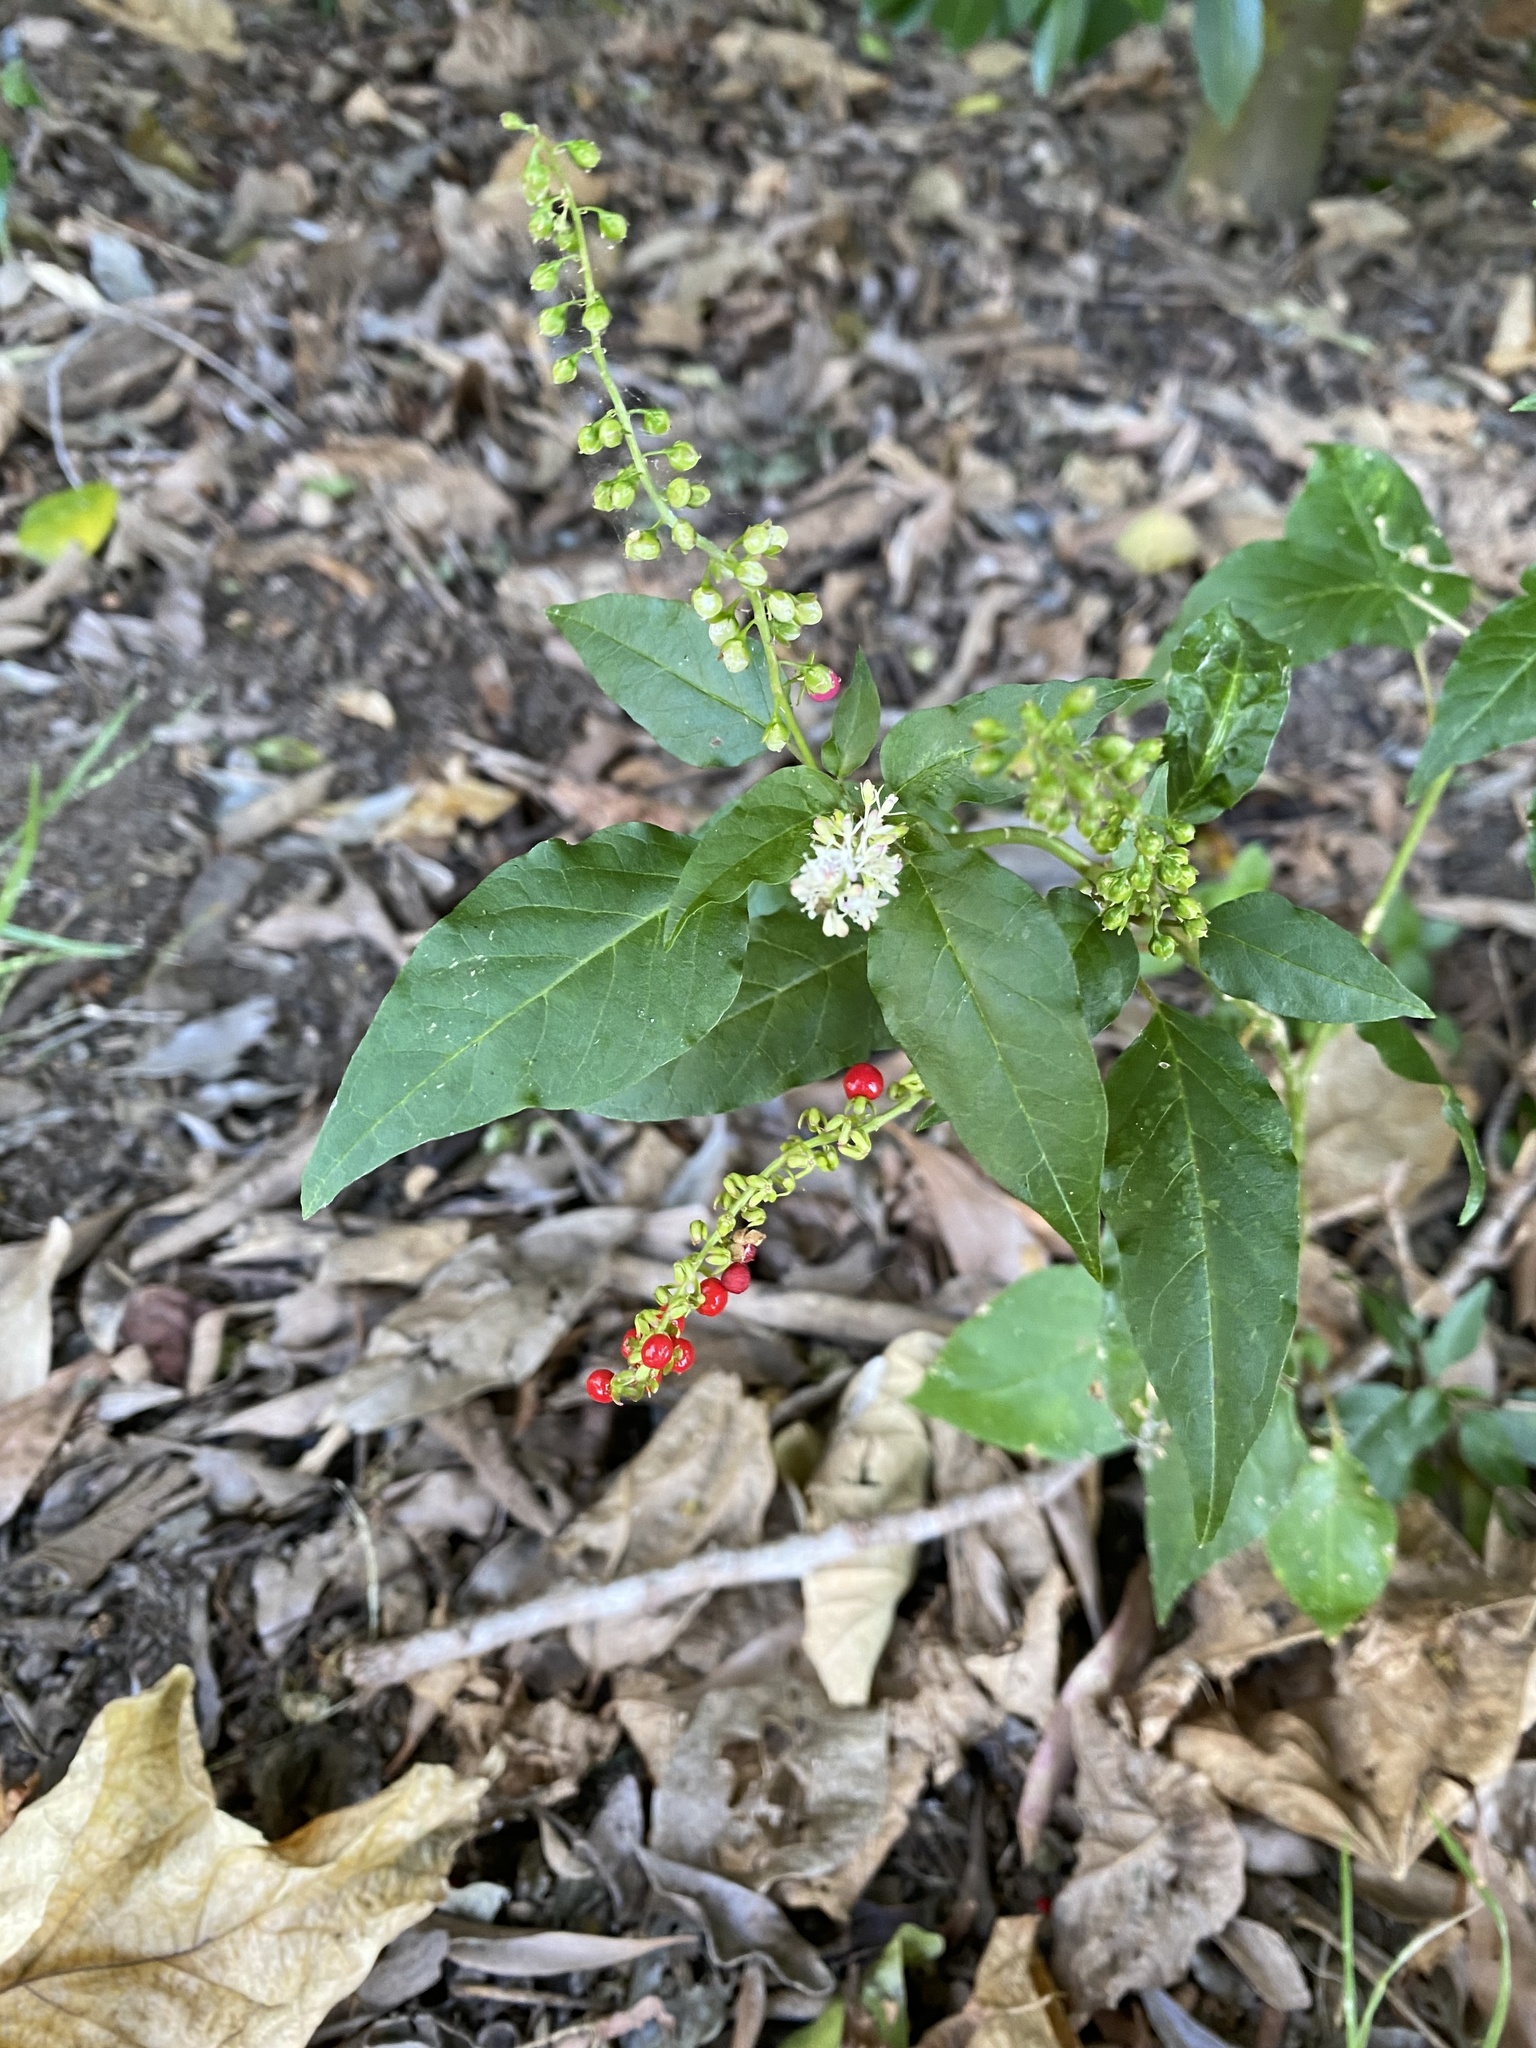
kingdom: Plantae
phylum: Tracheophyta
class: Magnoliopsida
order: Caryophyllales
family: Phytolaccaceae
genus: Rivina
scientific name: Rivina humilis
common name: Rougeplant
